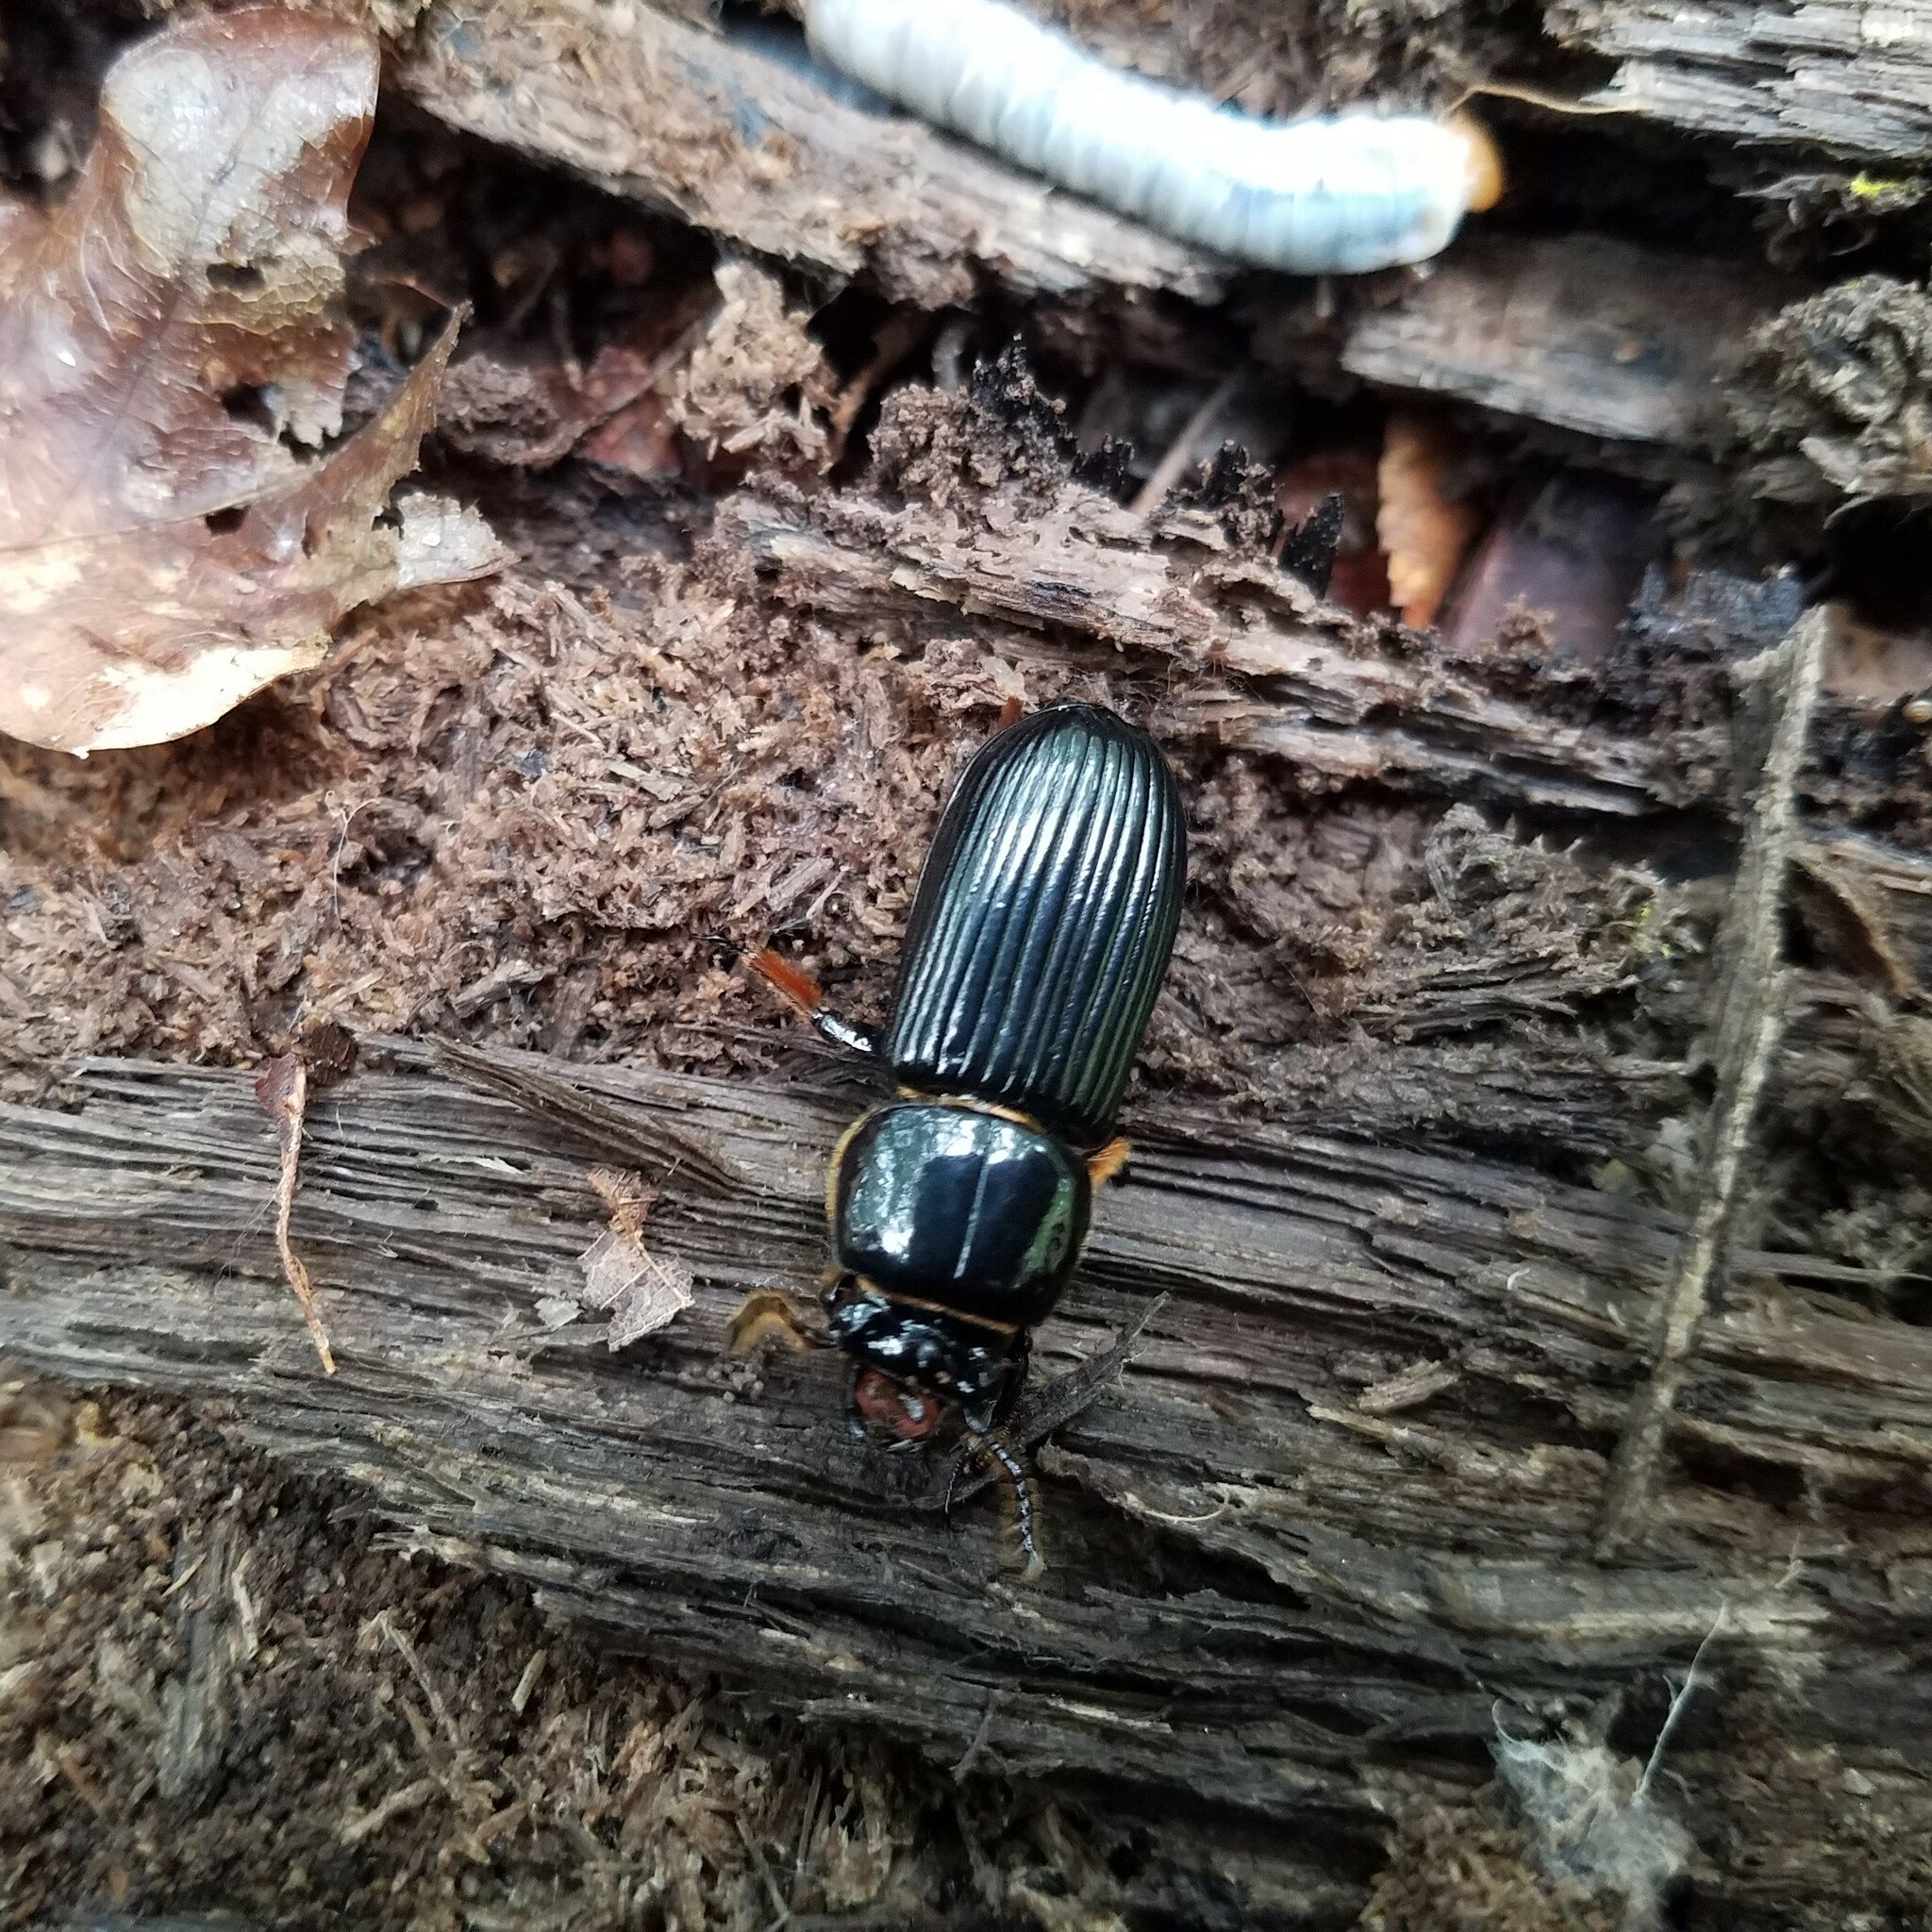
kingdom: Animalia
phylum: Arthropoda
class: Insecta
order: Coleoptera
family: Passalidae
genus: Odontotaenius
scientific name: Odontotaenius disjunctus
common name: Patent leather beetle
